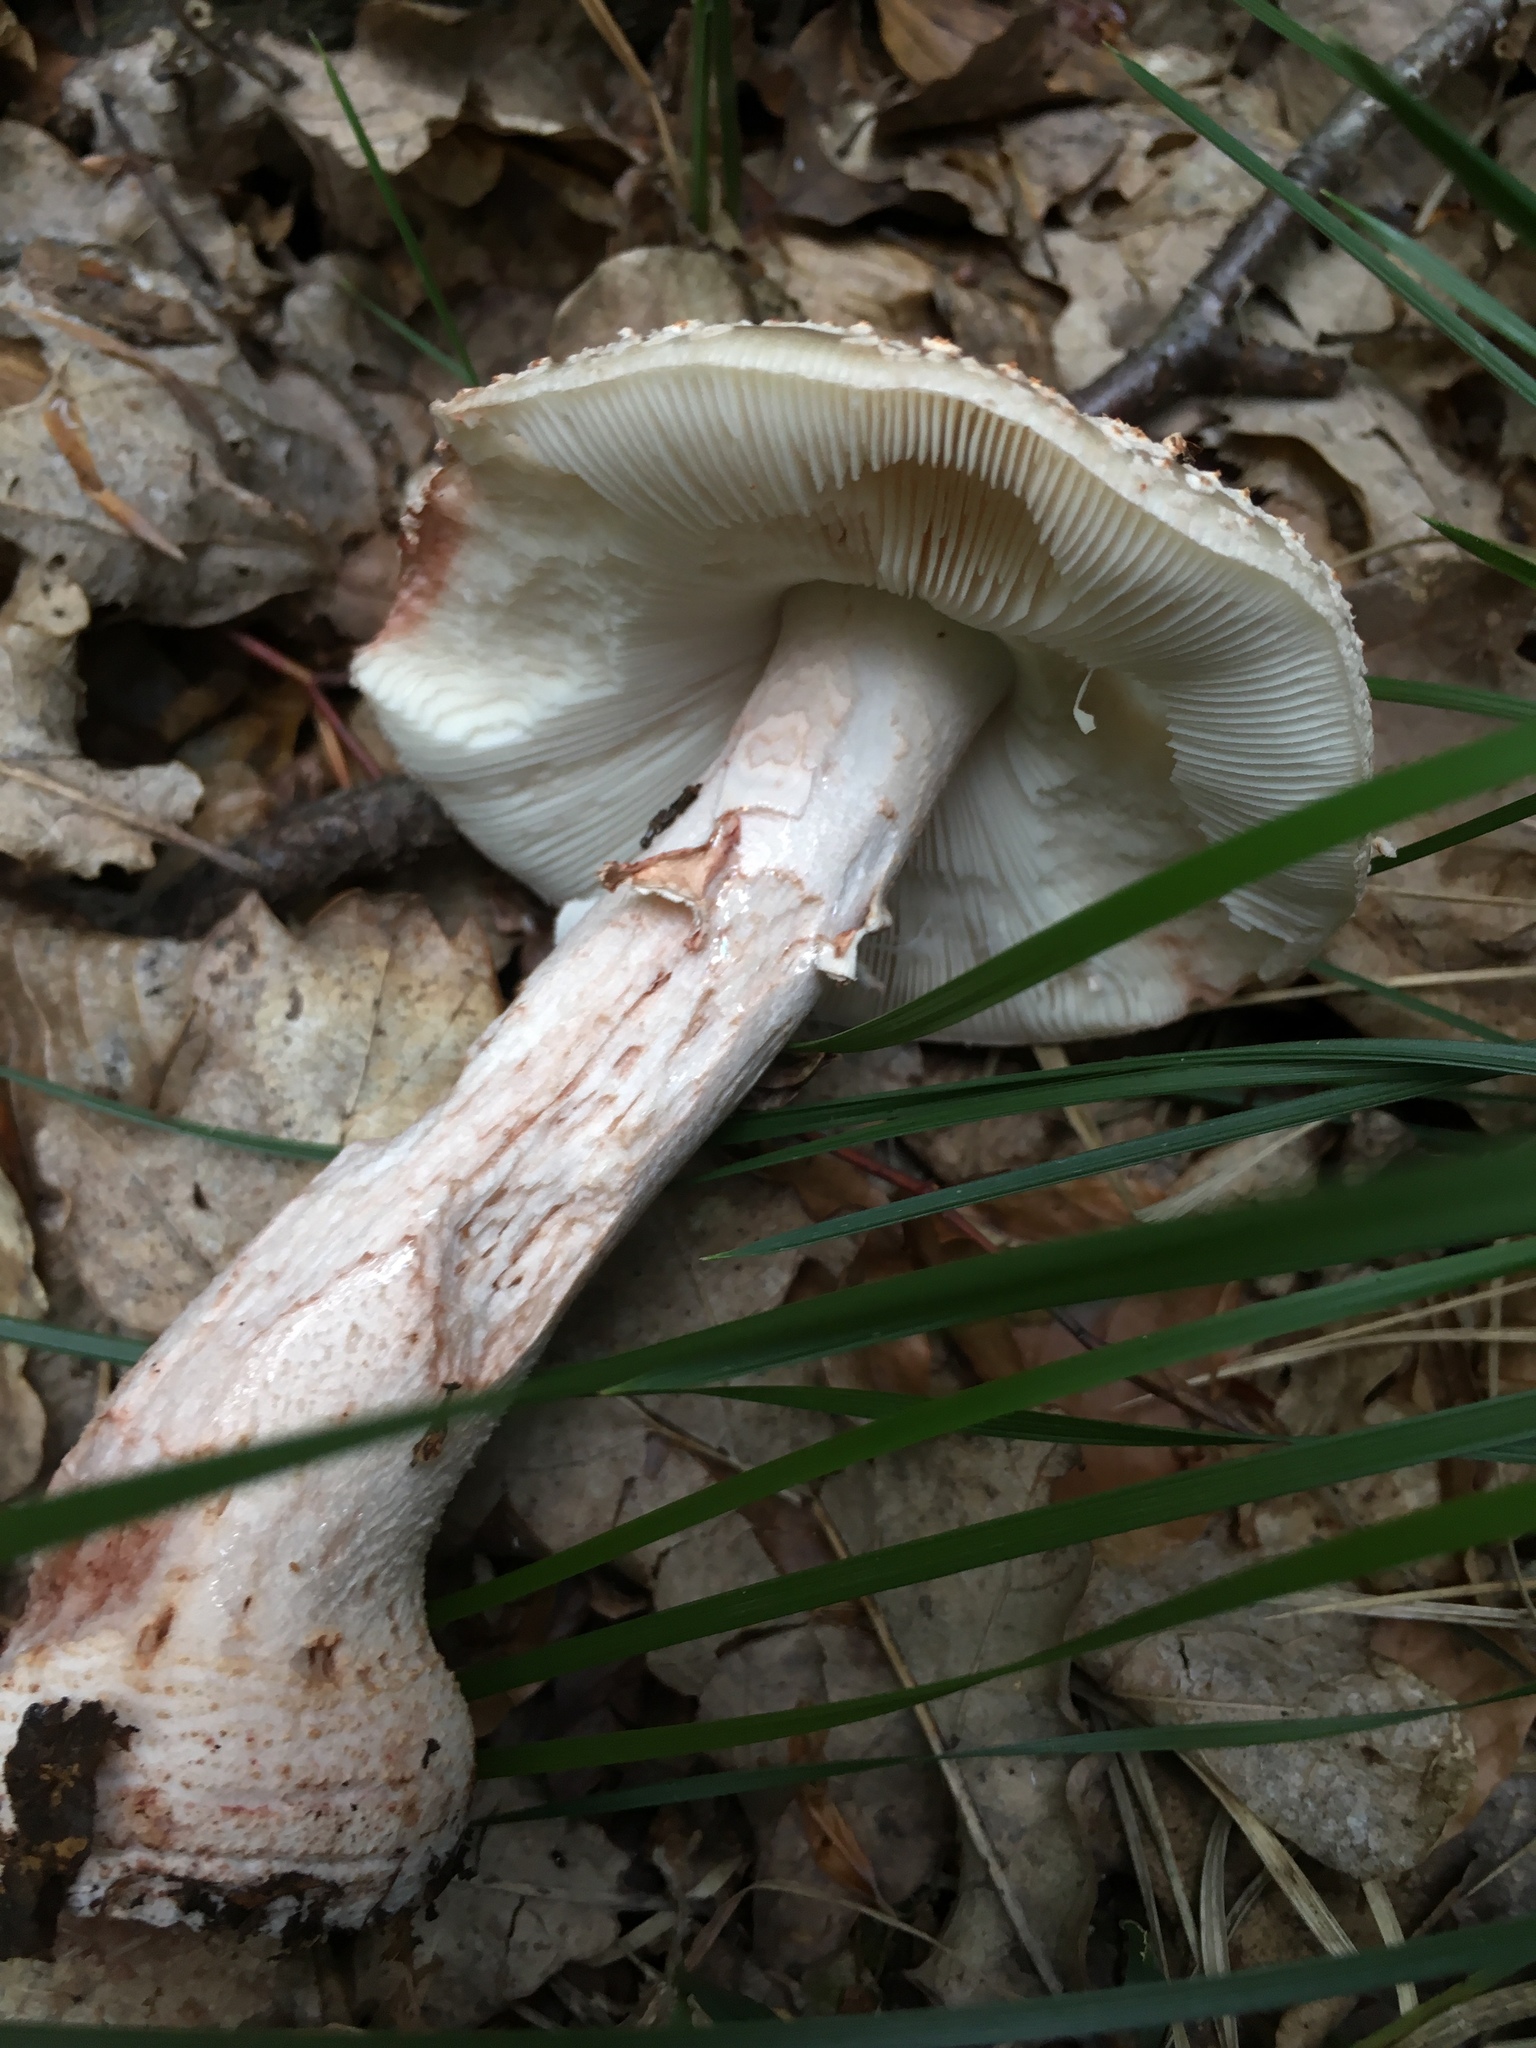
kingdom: Fungi
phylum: Basidiomycota
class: Agaricomycetes
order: Agaricales
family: Amanitaceae
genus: Amanita
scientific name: Amanita rubescens
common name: Blusher
